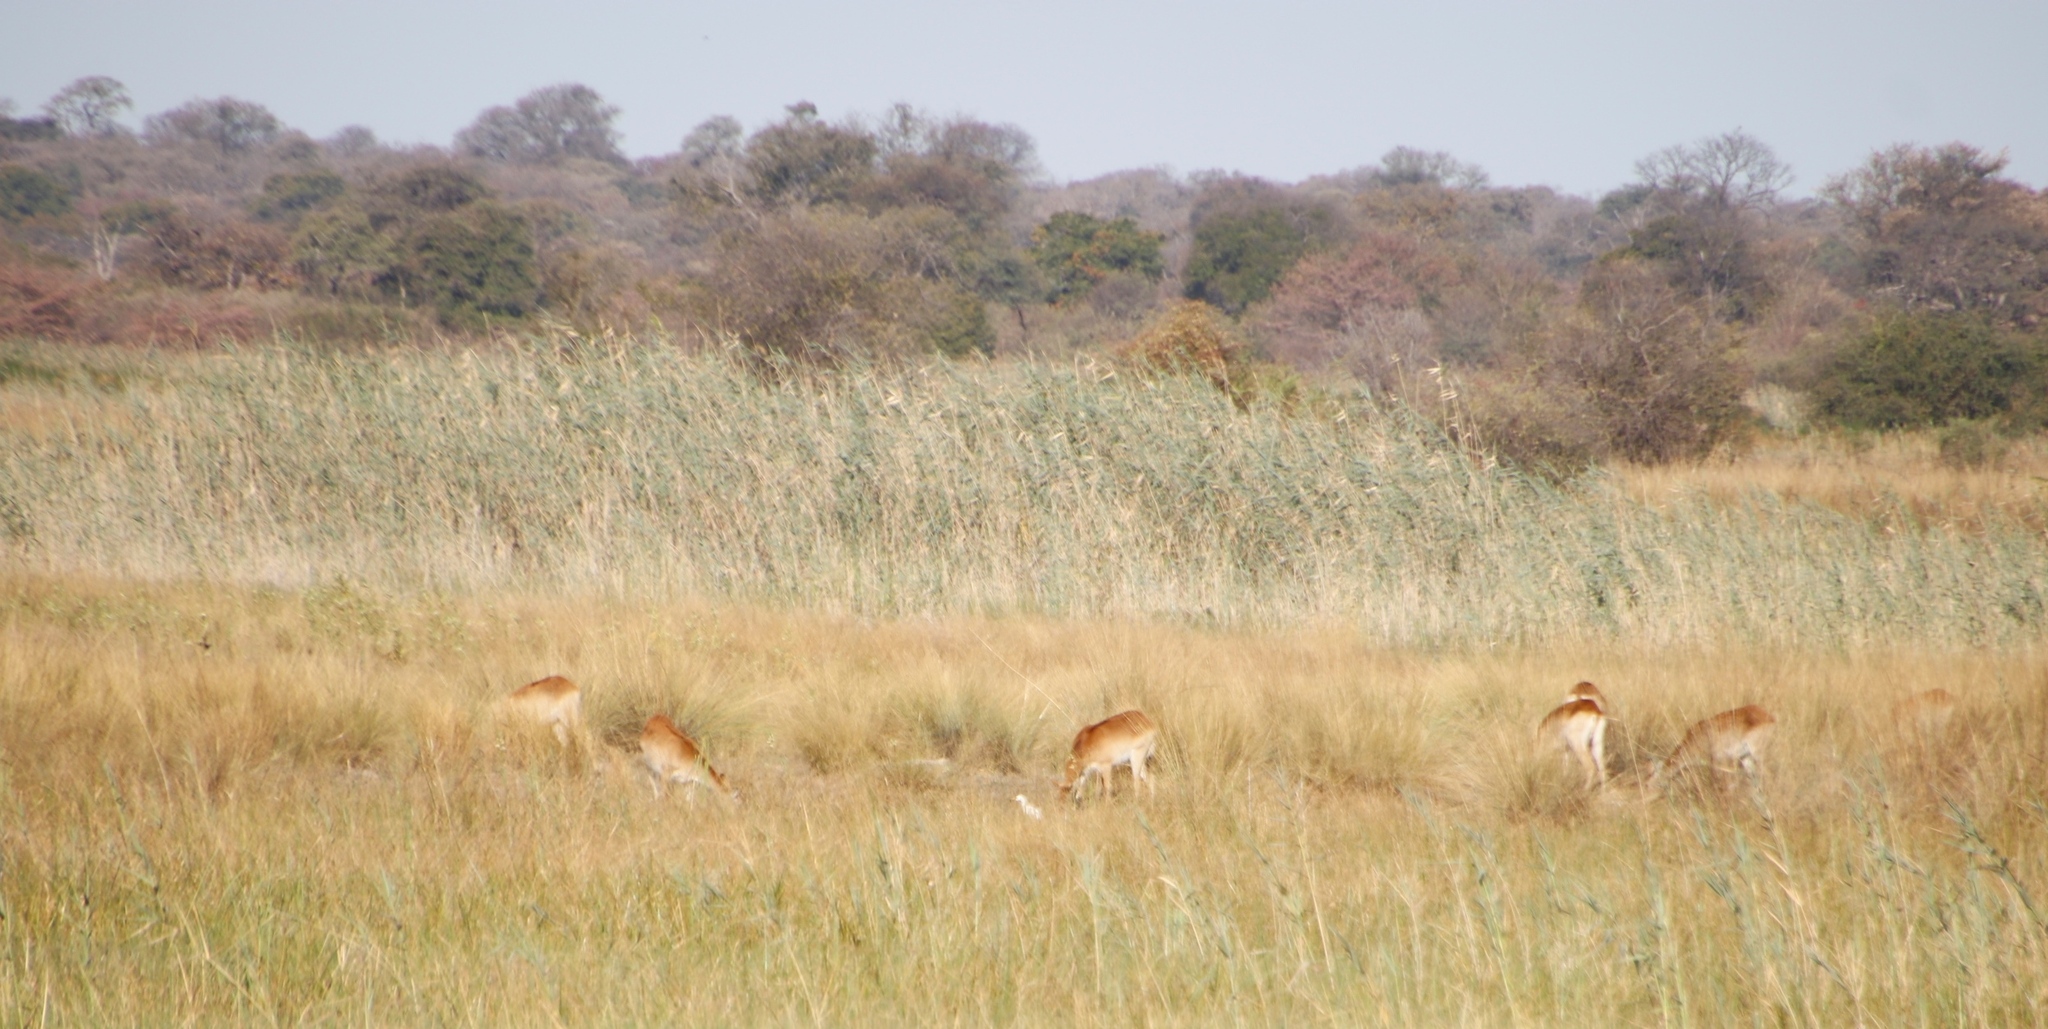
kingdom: Plantae
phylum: Tracheophyta
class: Liliopsida
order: Poales
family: Poaceae
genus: Phragmites
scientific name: Phragmites australis
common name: Common reed
